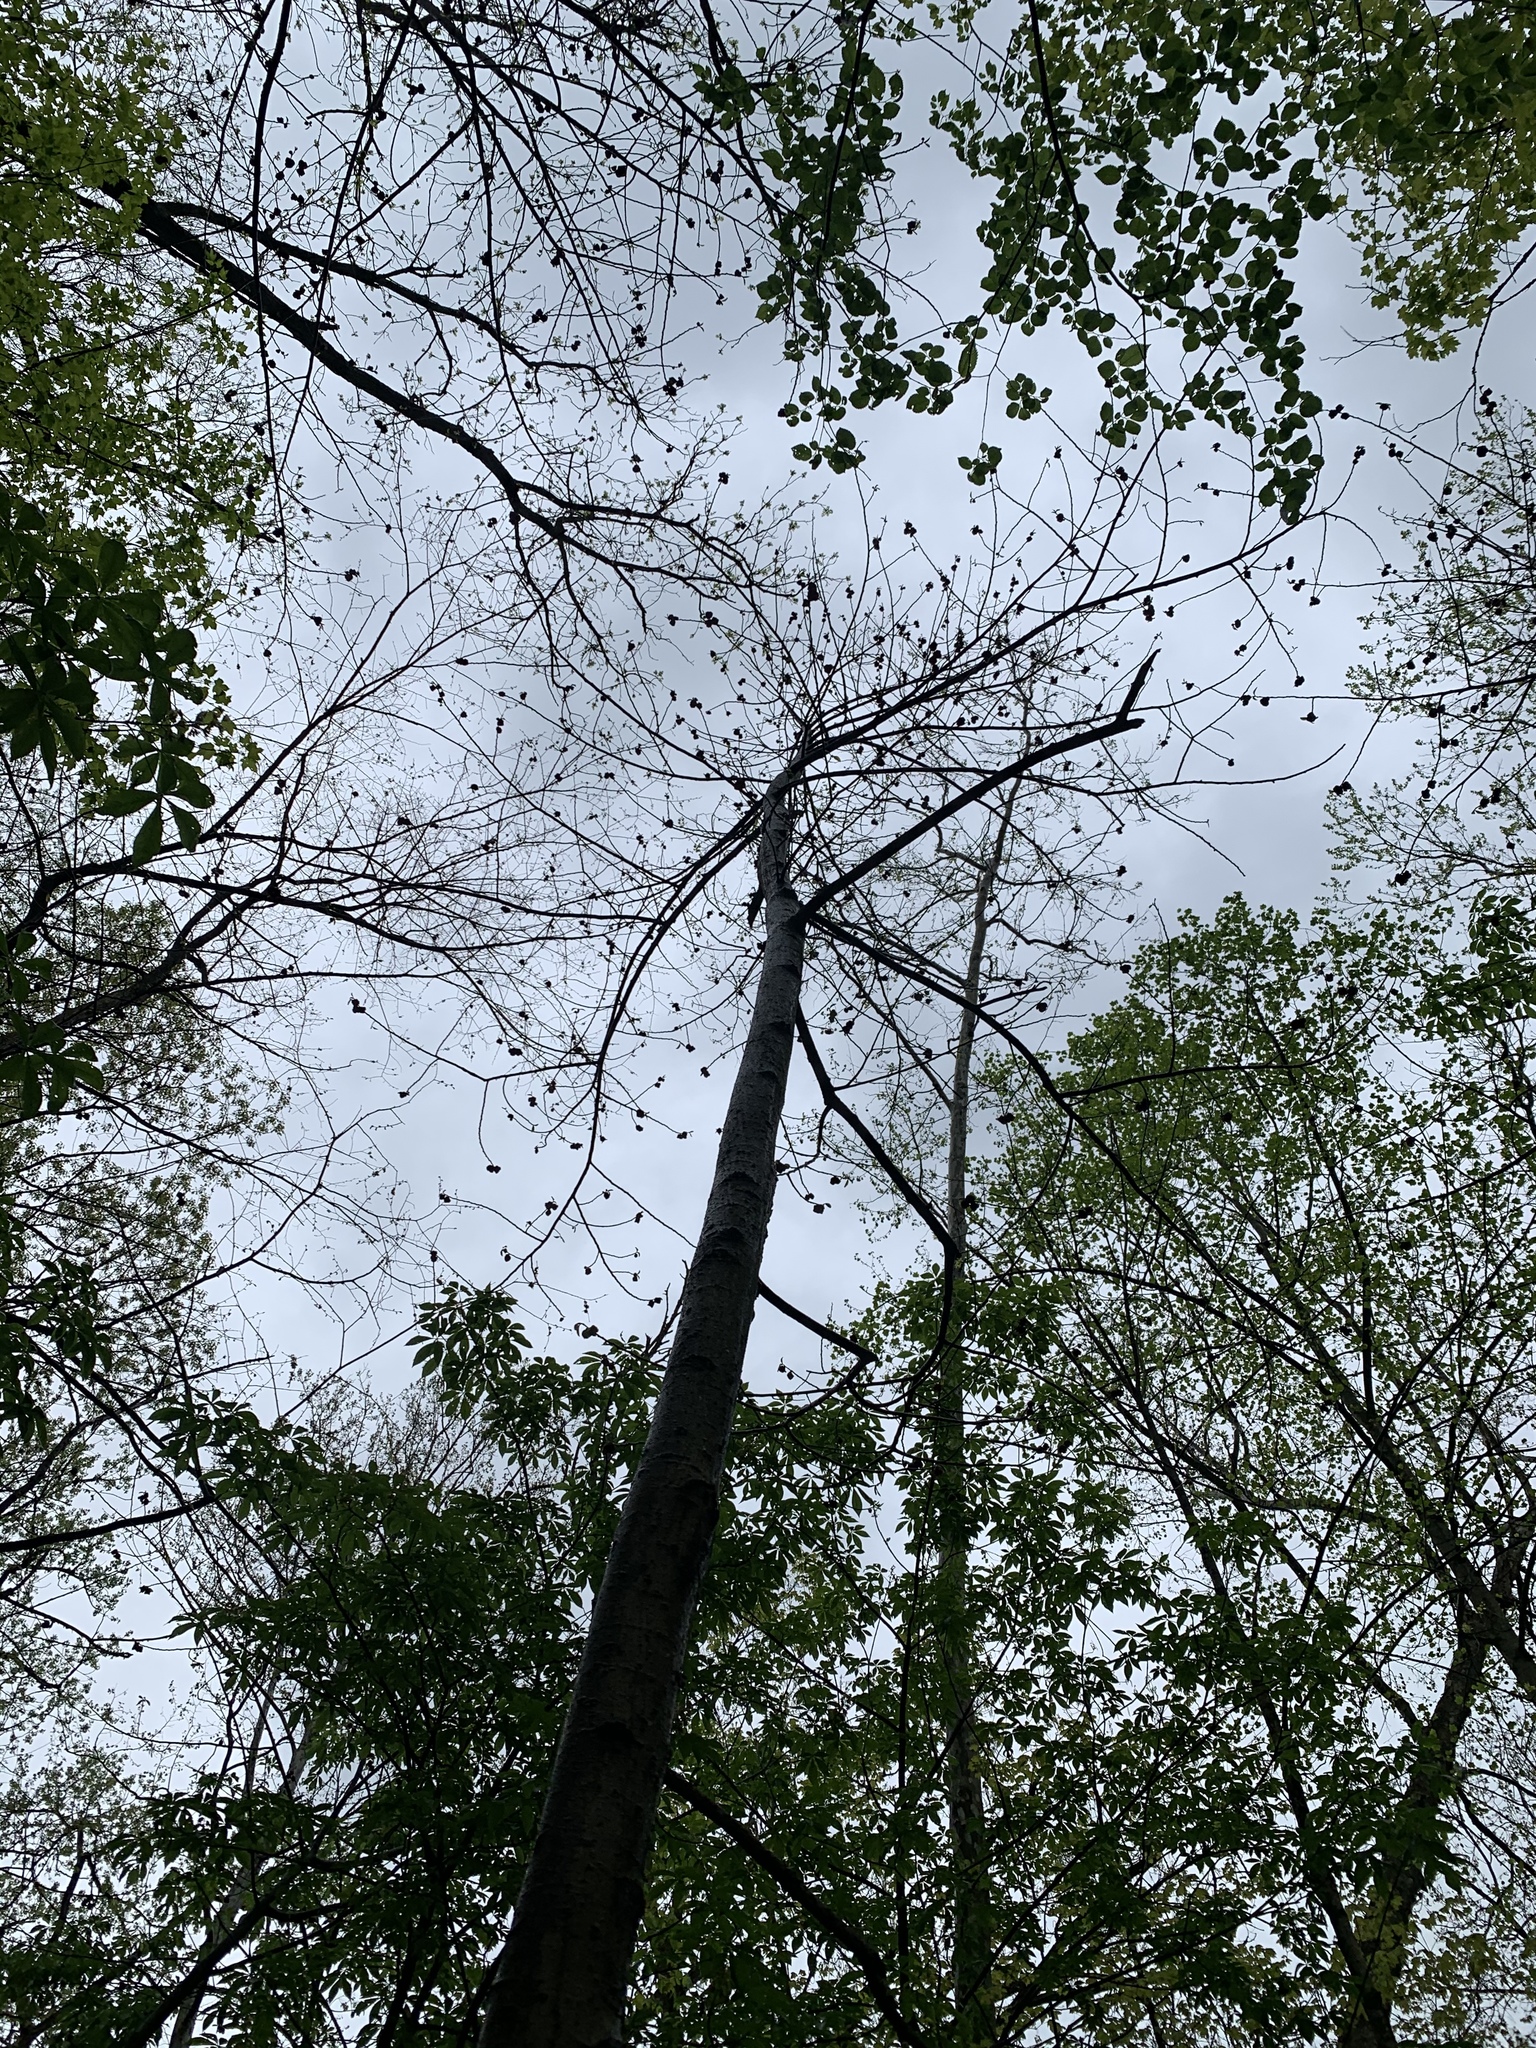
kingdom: Plantae
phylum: Tracheophyta
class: Magnoliopsida
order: Magnoliales
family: Annonaceae
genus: Asimina
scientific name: Asimina triloba
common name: Dog-banana
